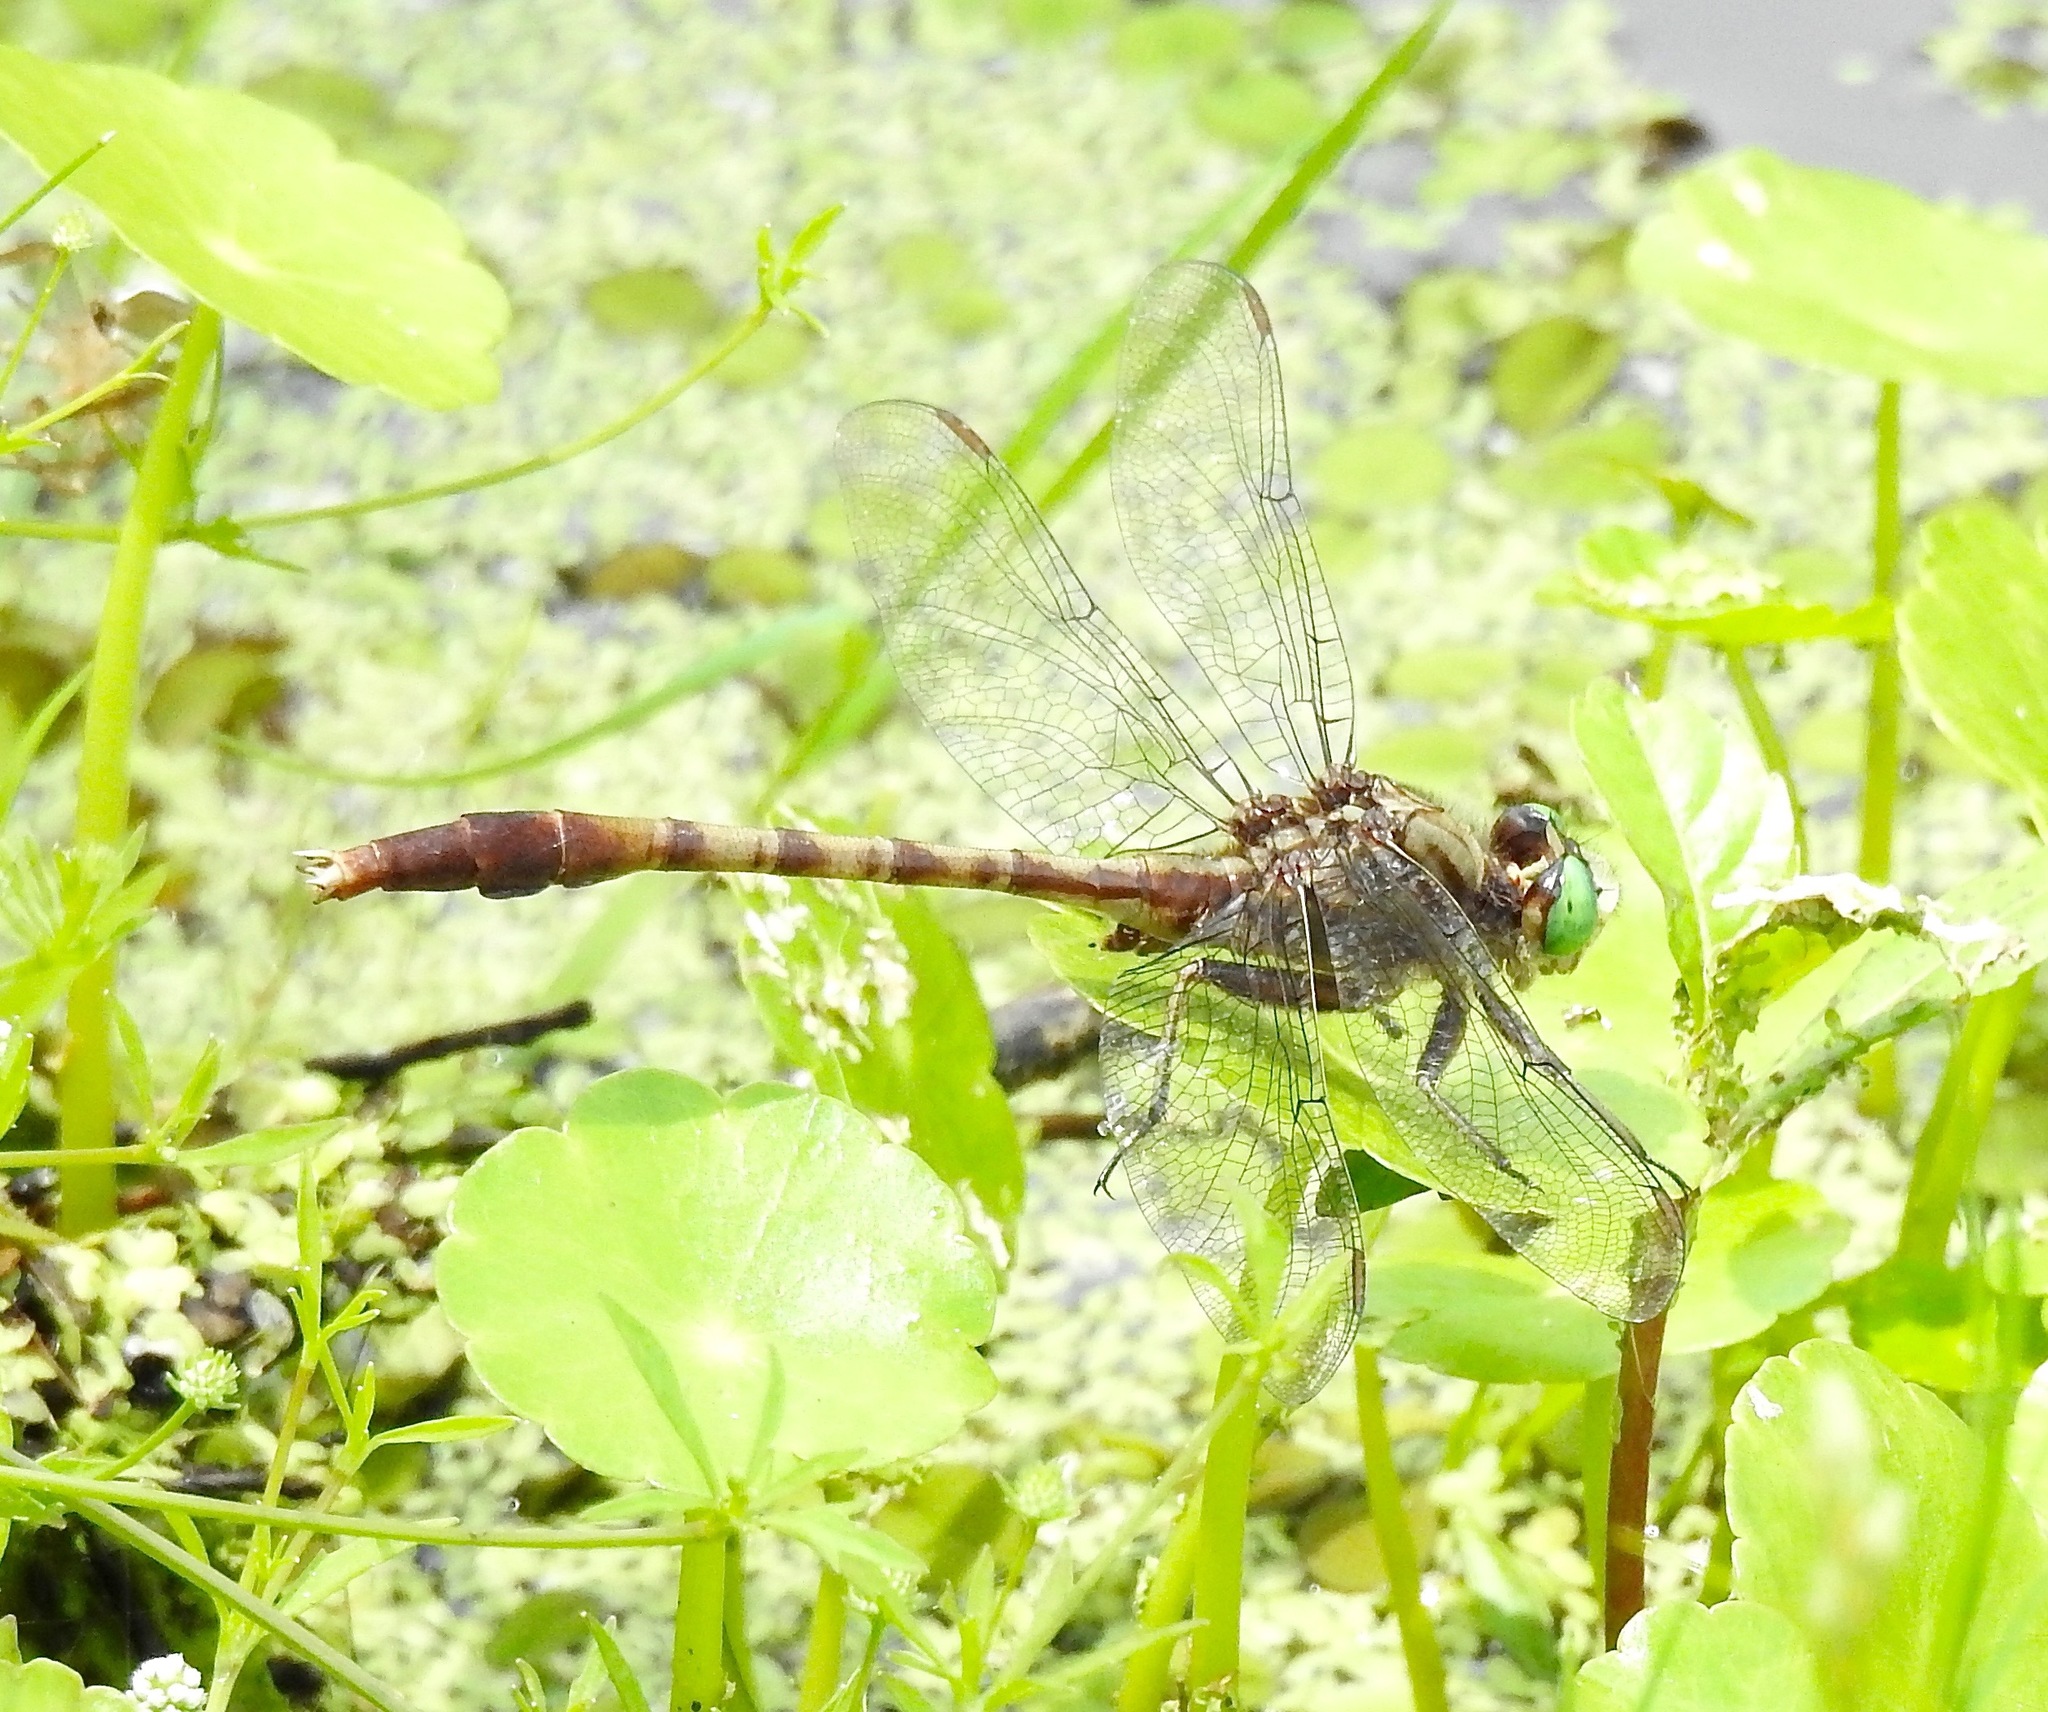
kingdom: Animalia
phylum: Arthropoda
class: Insecta
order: Odonata
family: Gomphidae
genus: Arigomphus
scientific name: Arigomphus pallidus
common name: Gray-green clubtail
